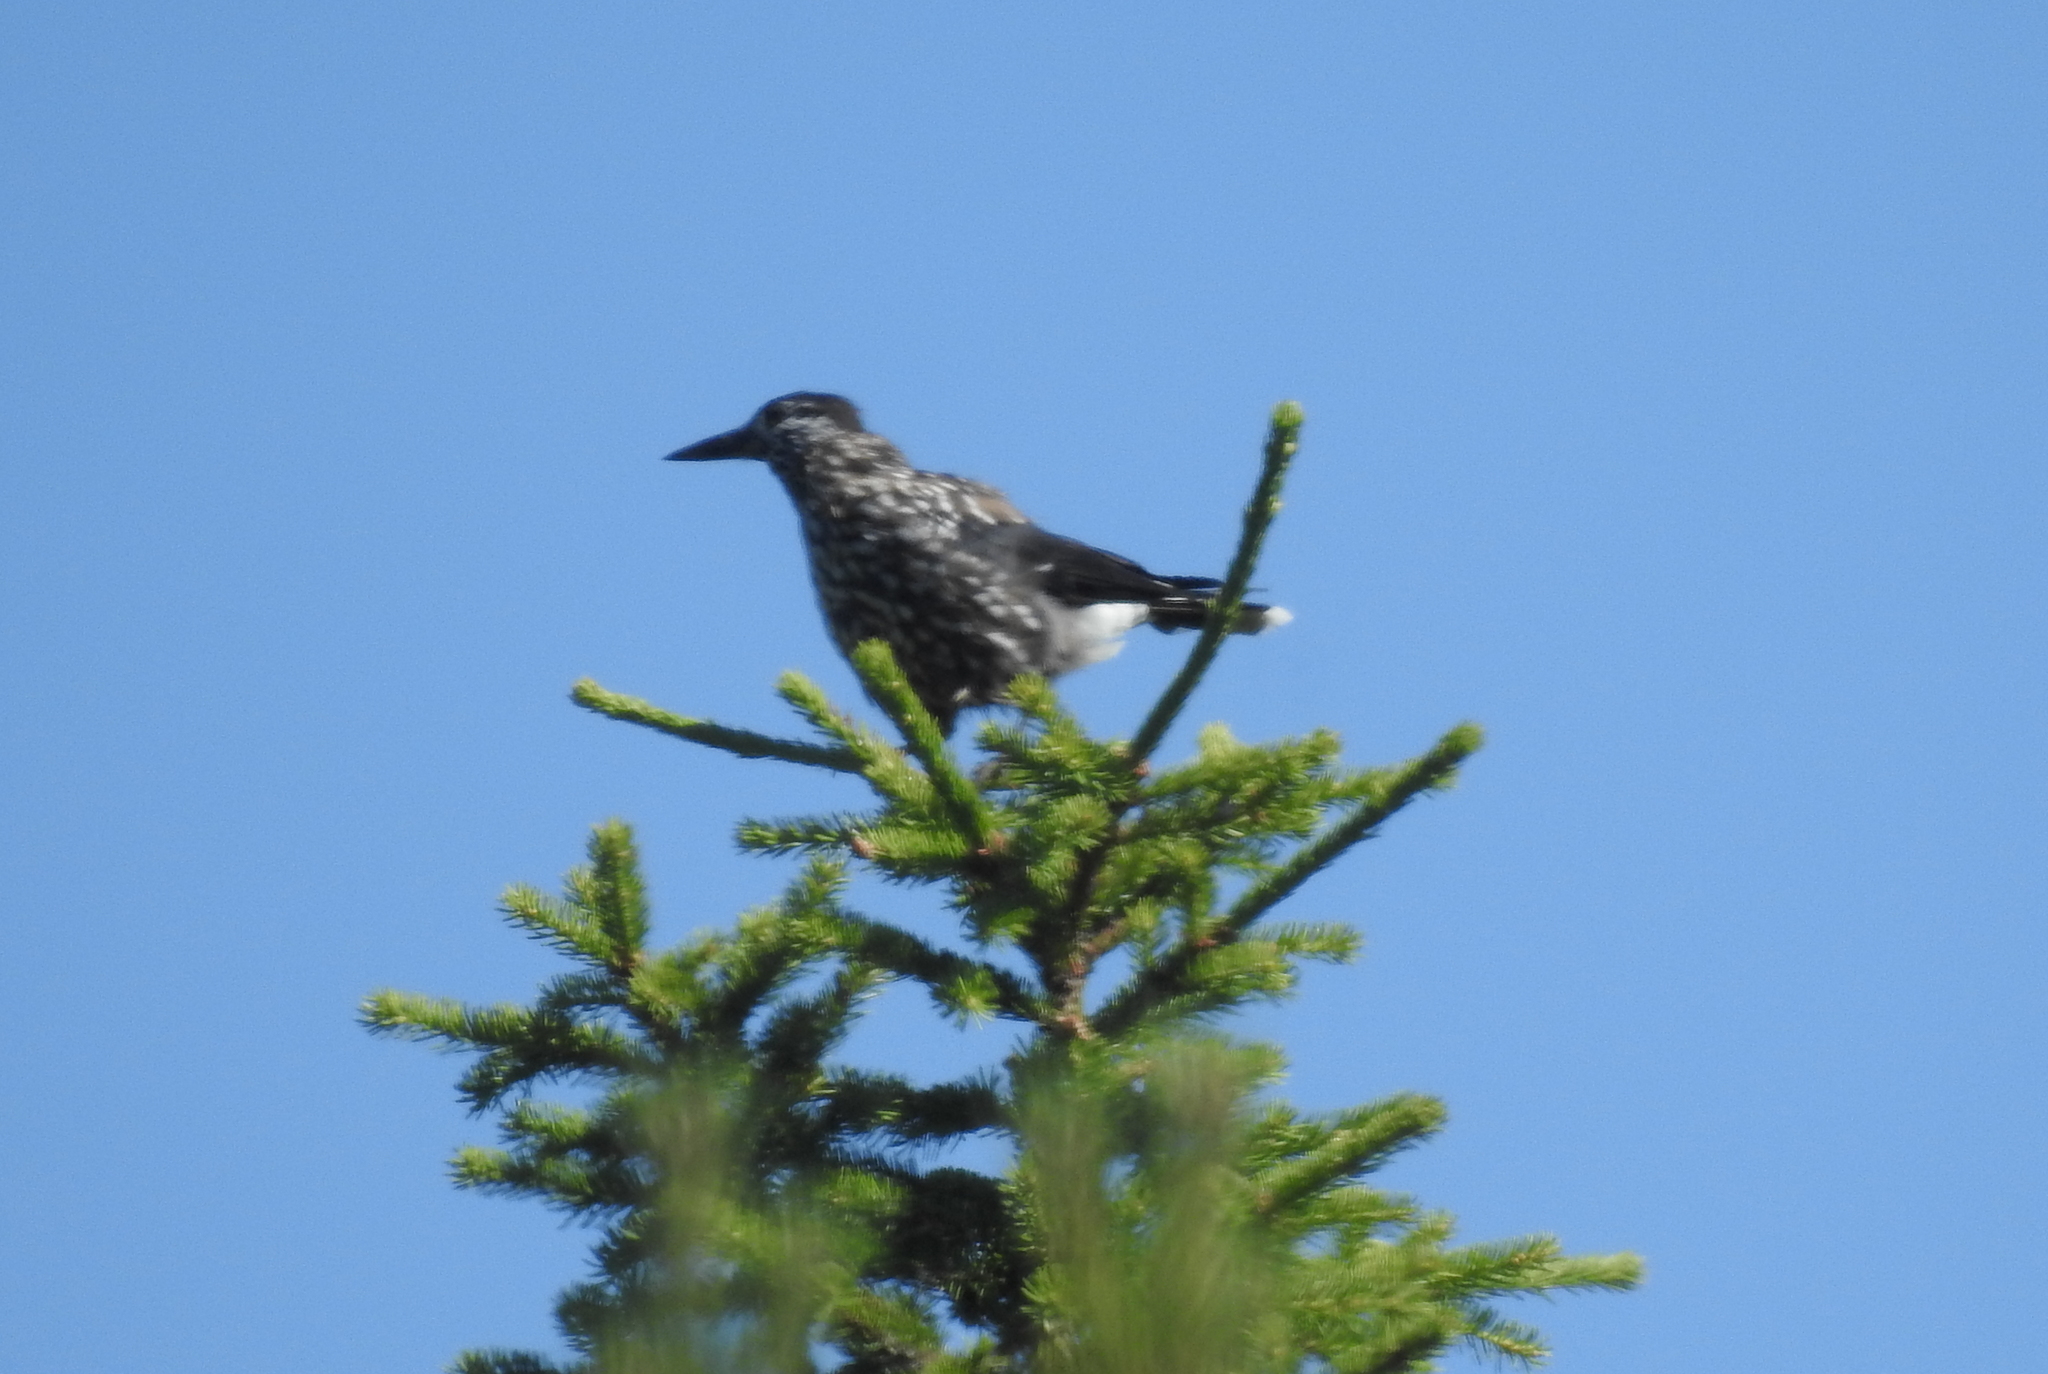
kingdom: Animalia
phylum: Chordata
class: Aves
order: Passeriformes
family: Corvidae
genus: Nucifraga
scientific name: Nucifraga caryocatactes
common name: Spotted nutcracker
